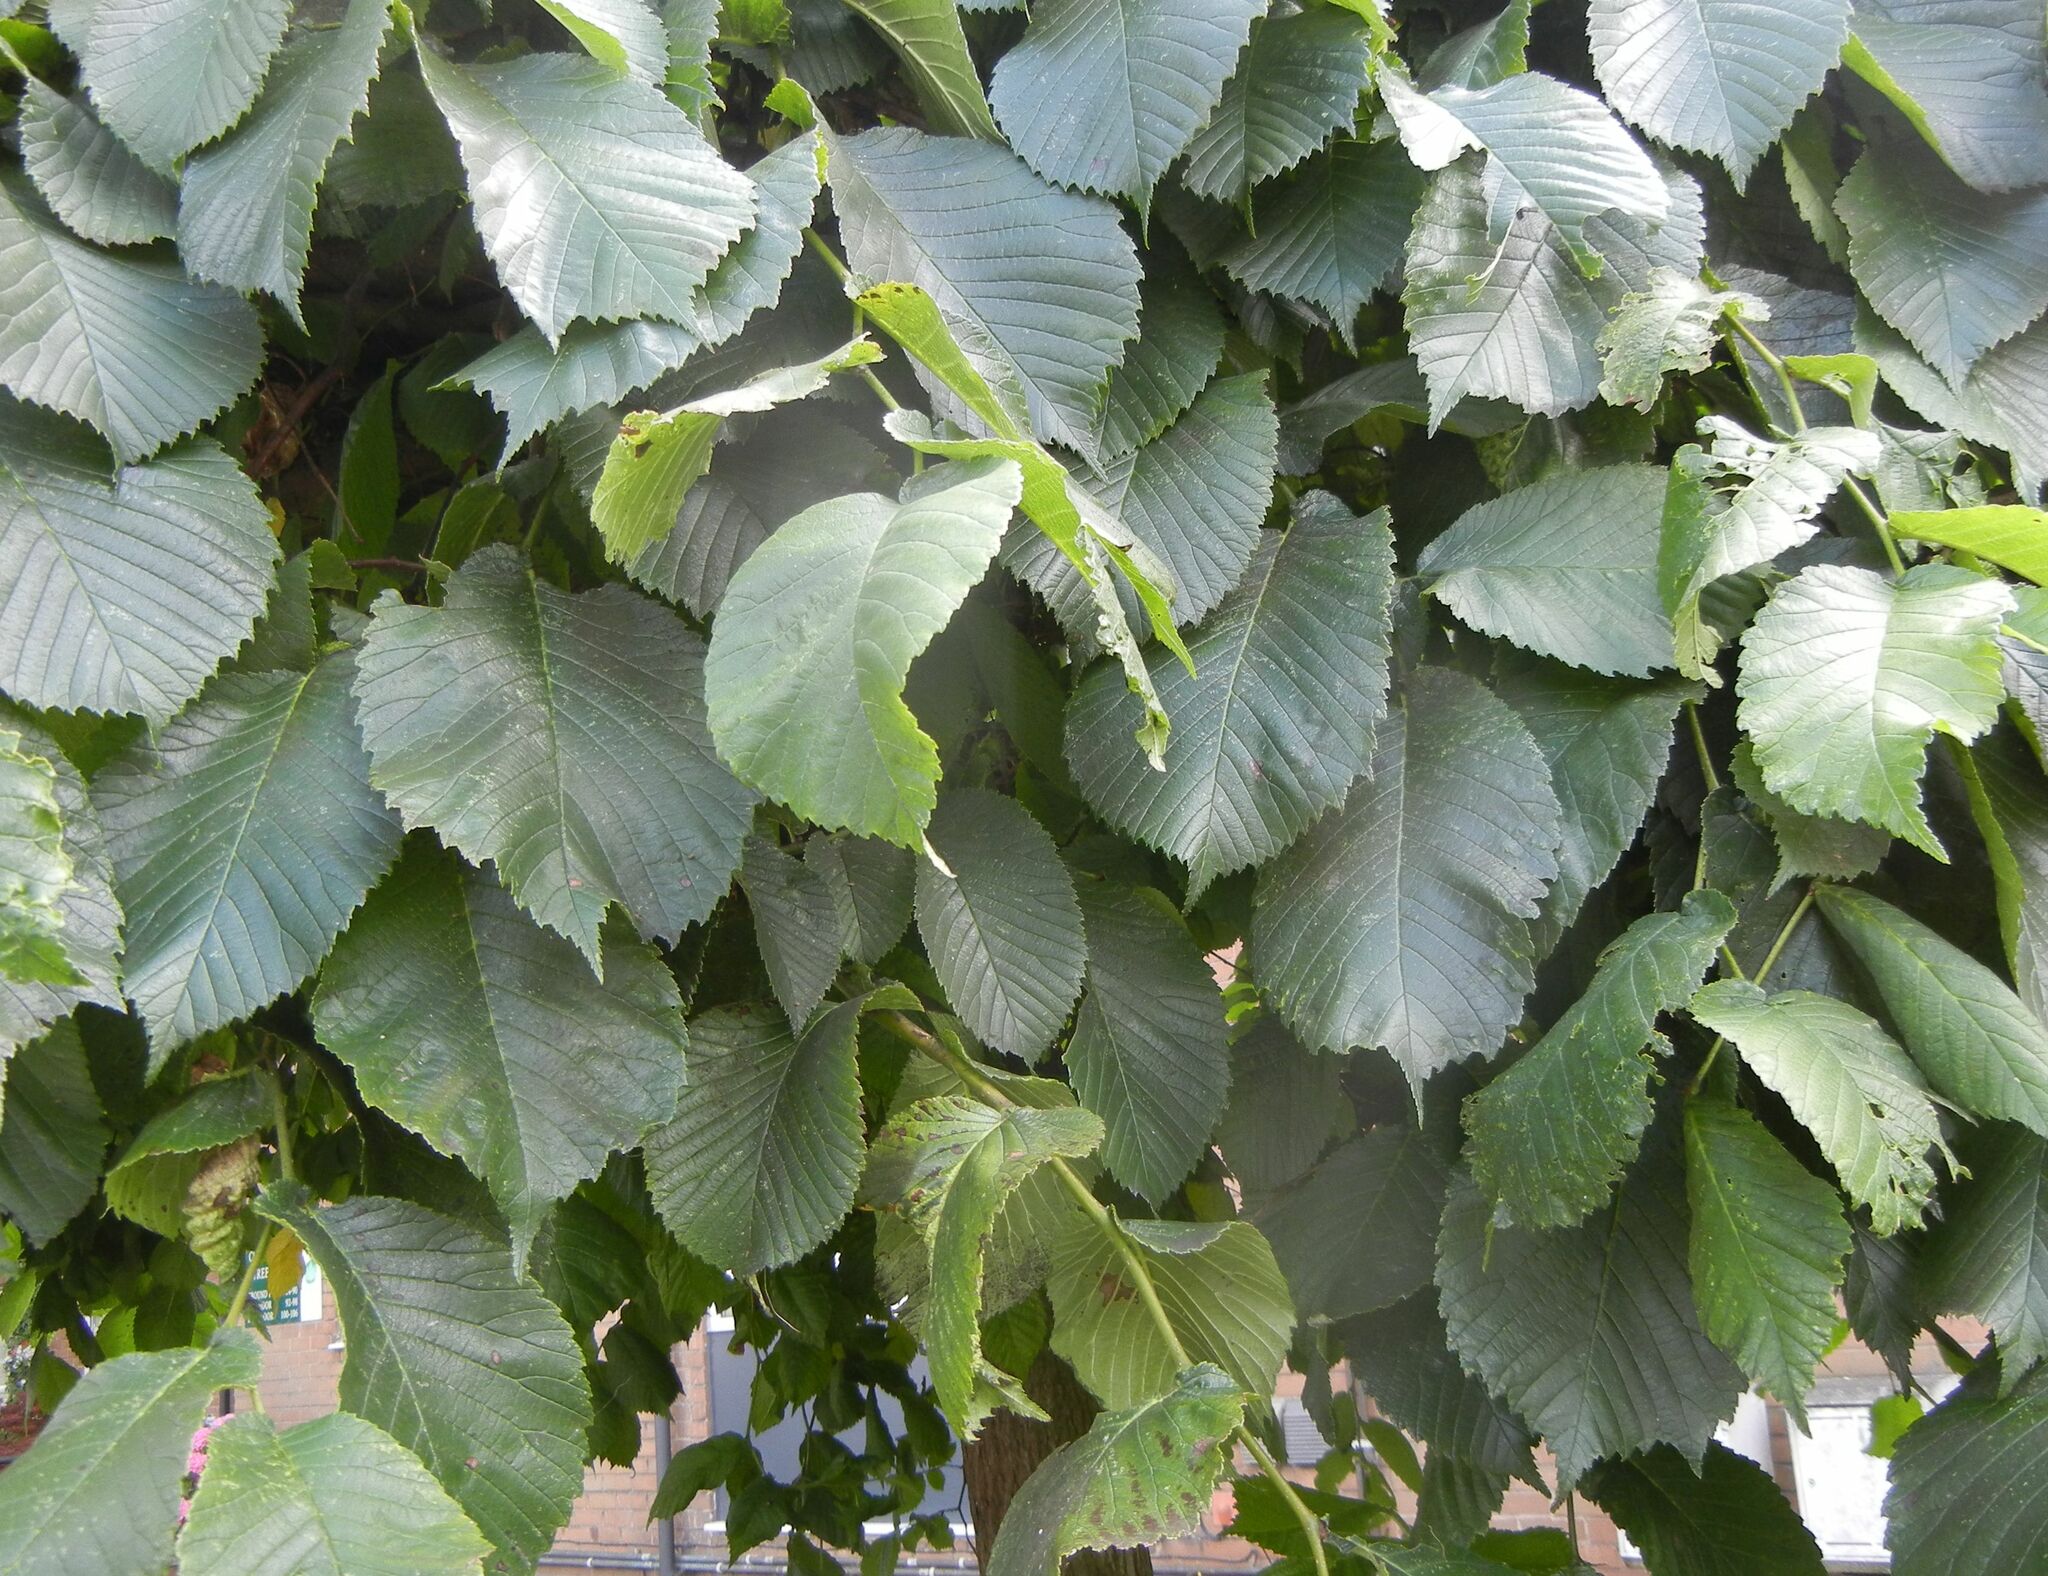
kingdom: Plantae
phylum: Tracheophyta
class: Magnoliopsida
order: Rosales
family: Ulmaceae
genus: Ulmus
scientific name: Ulmus glabra
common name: Wych elm
